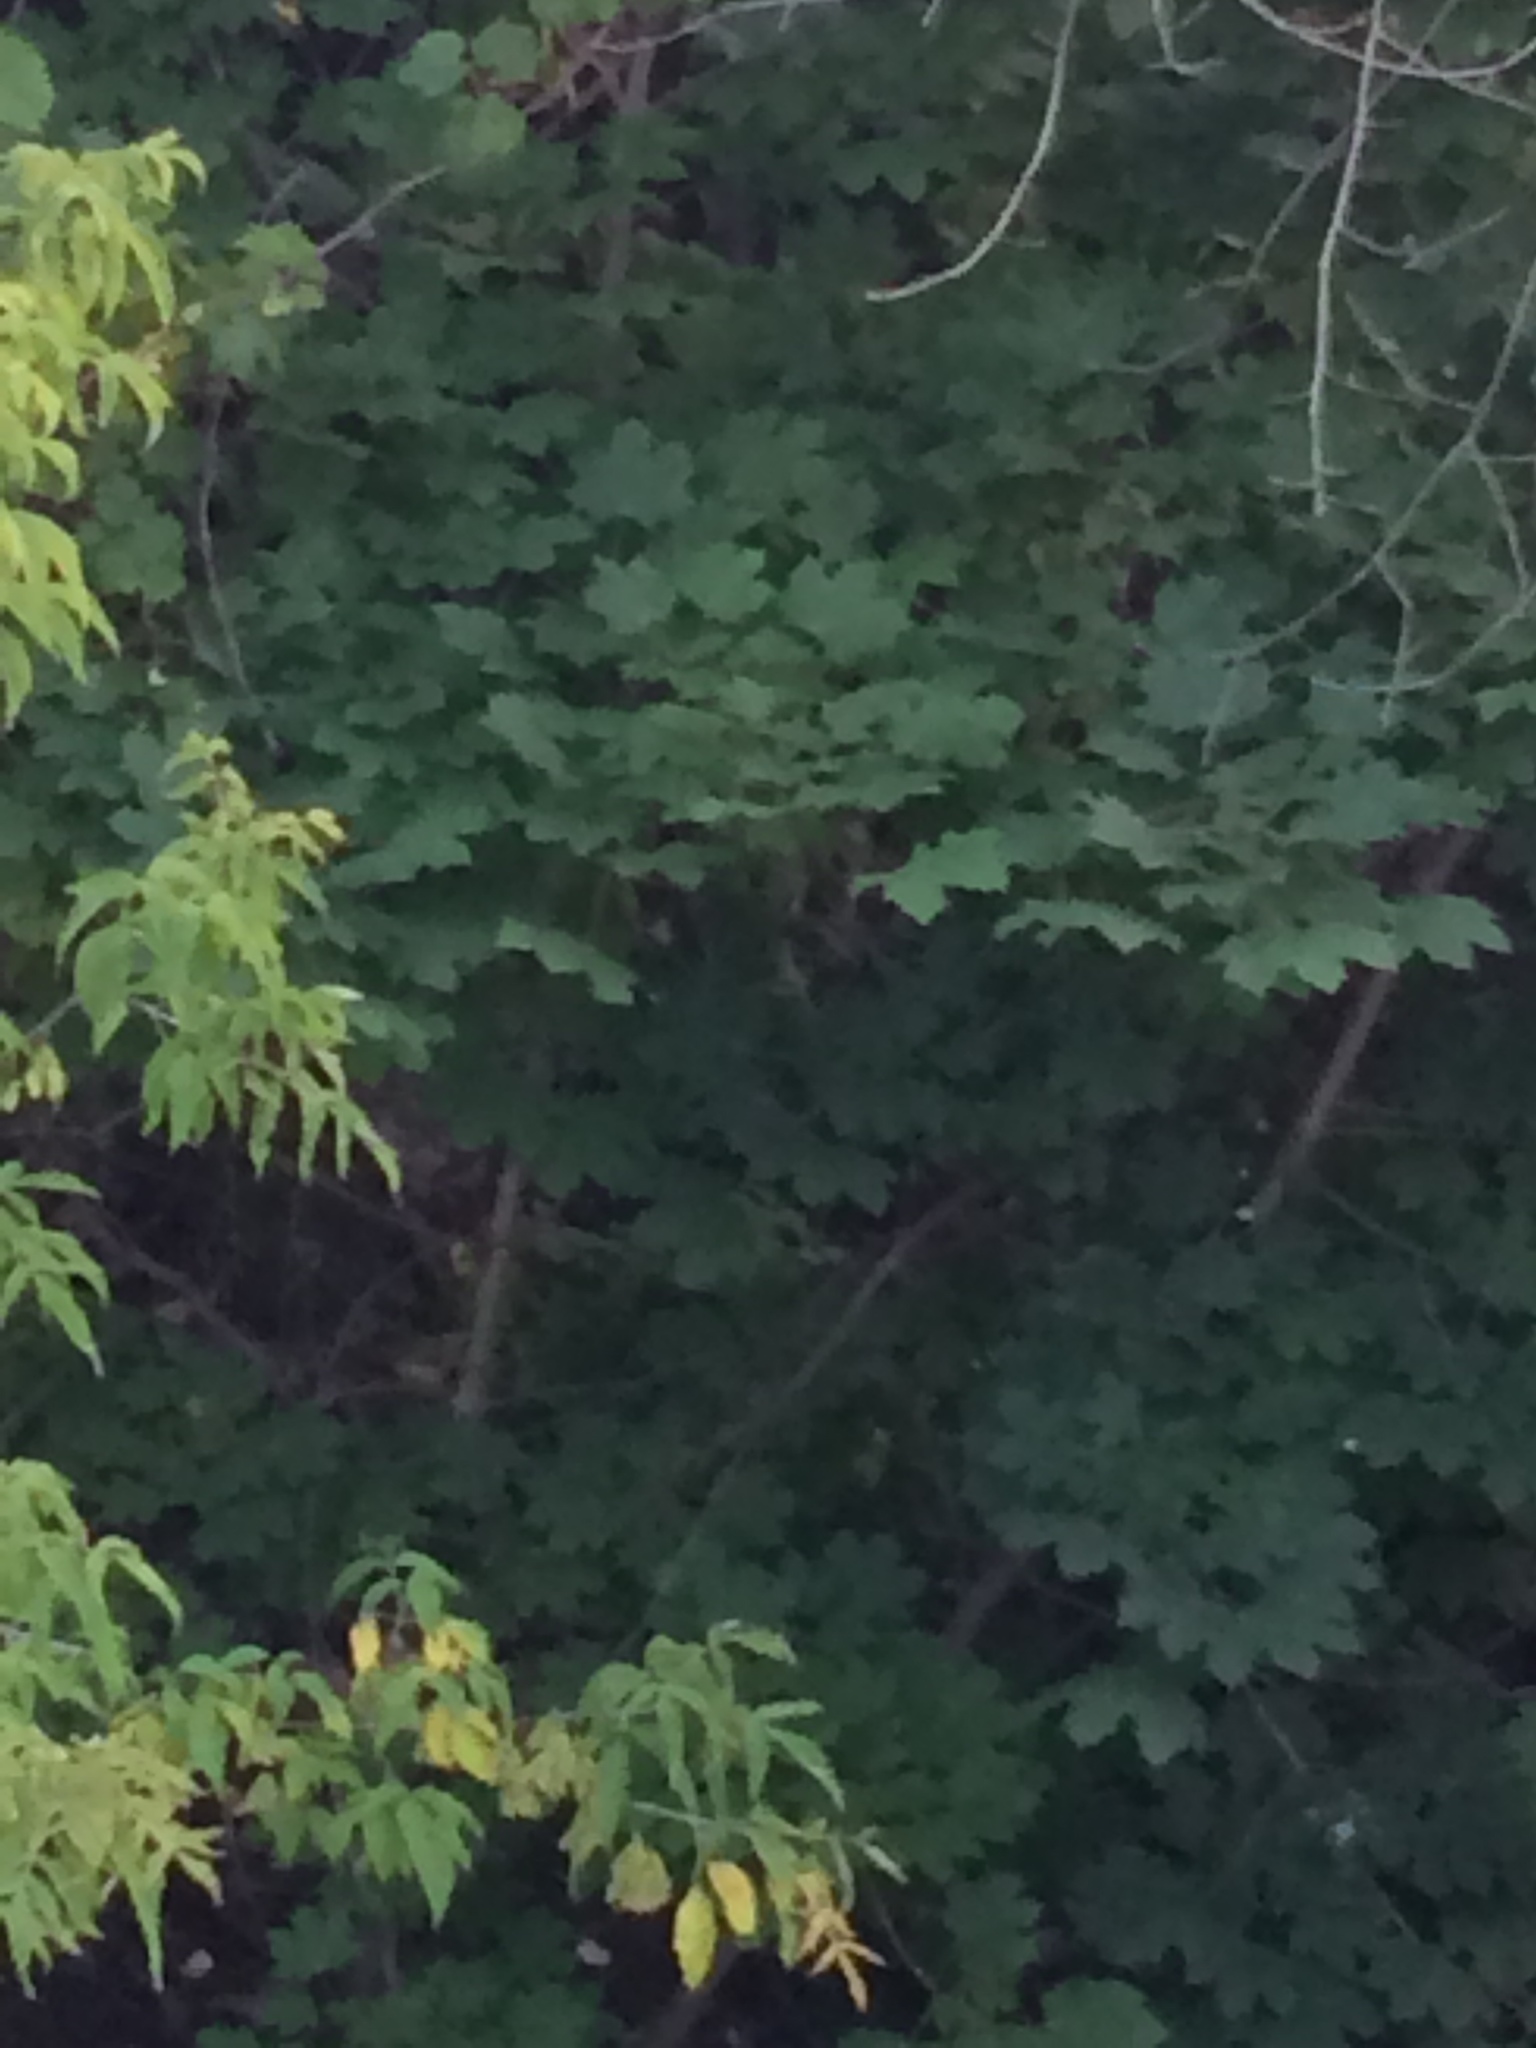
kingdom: Plantae
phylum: Tracheophyta
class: Magnoliopsida
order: Sapindales
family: Sapindaceae
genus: Acer
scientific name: Acer platanoides
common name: Norway maple
